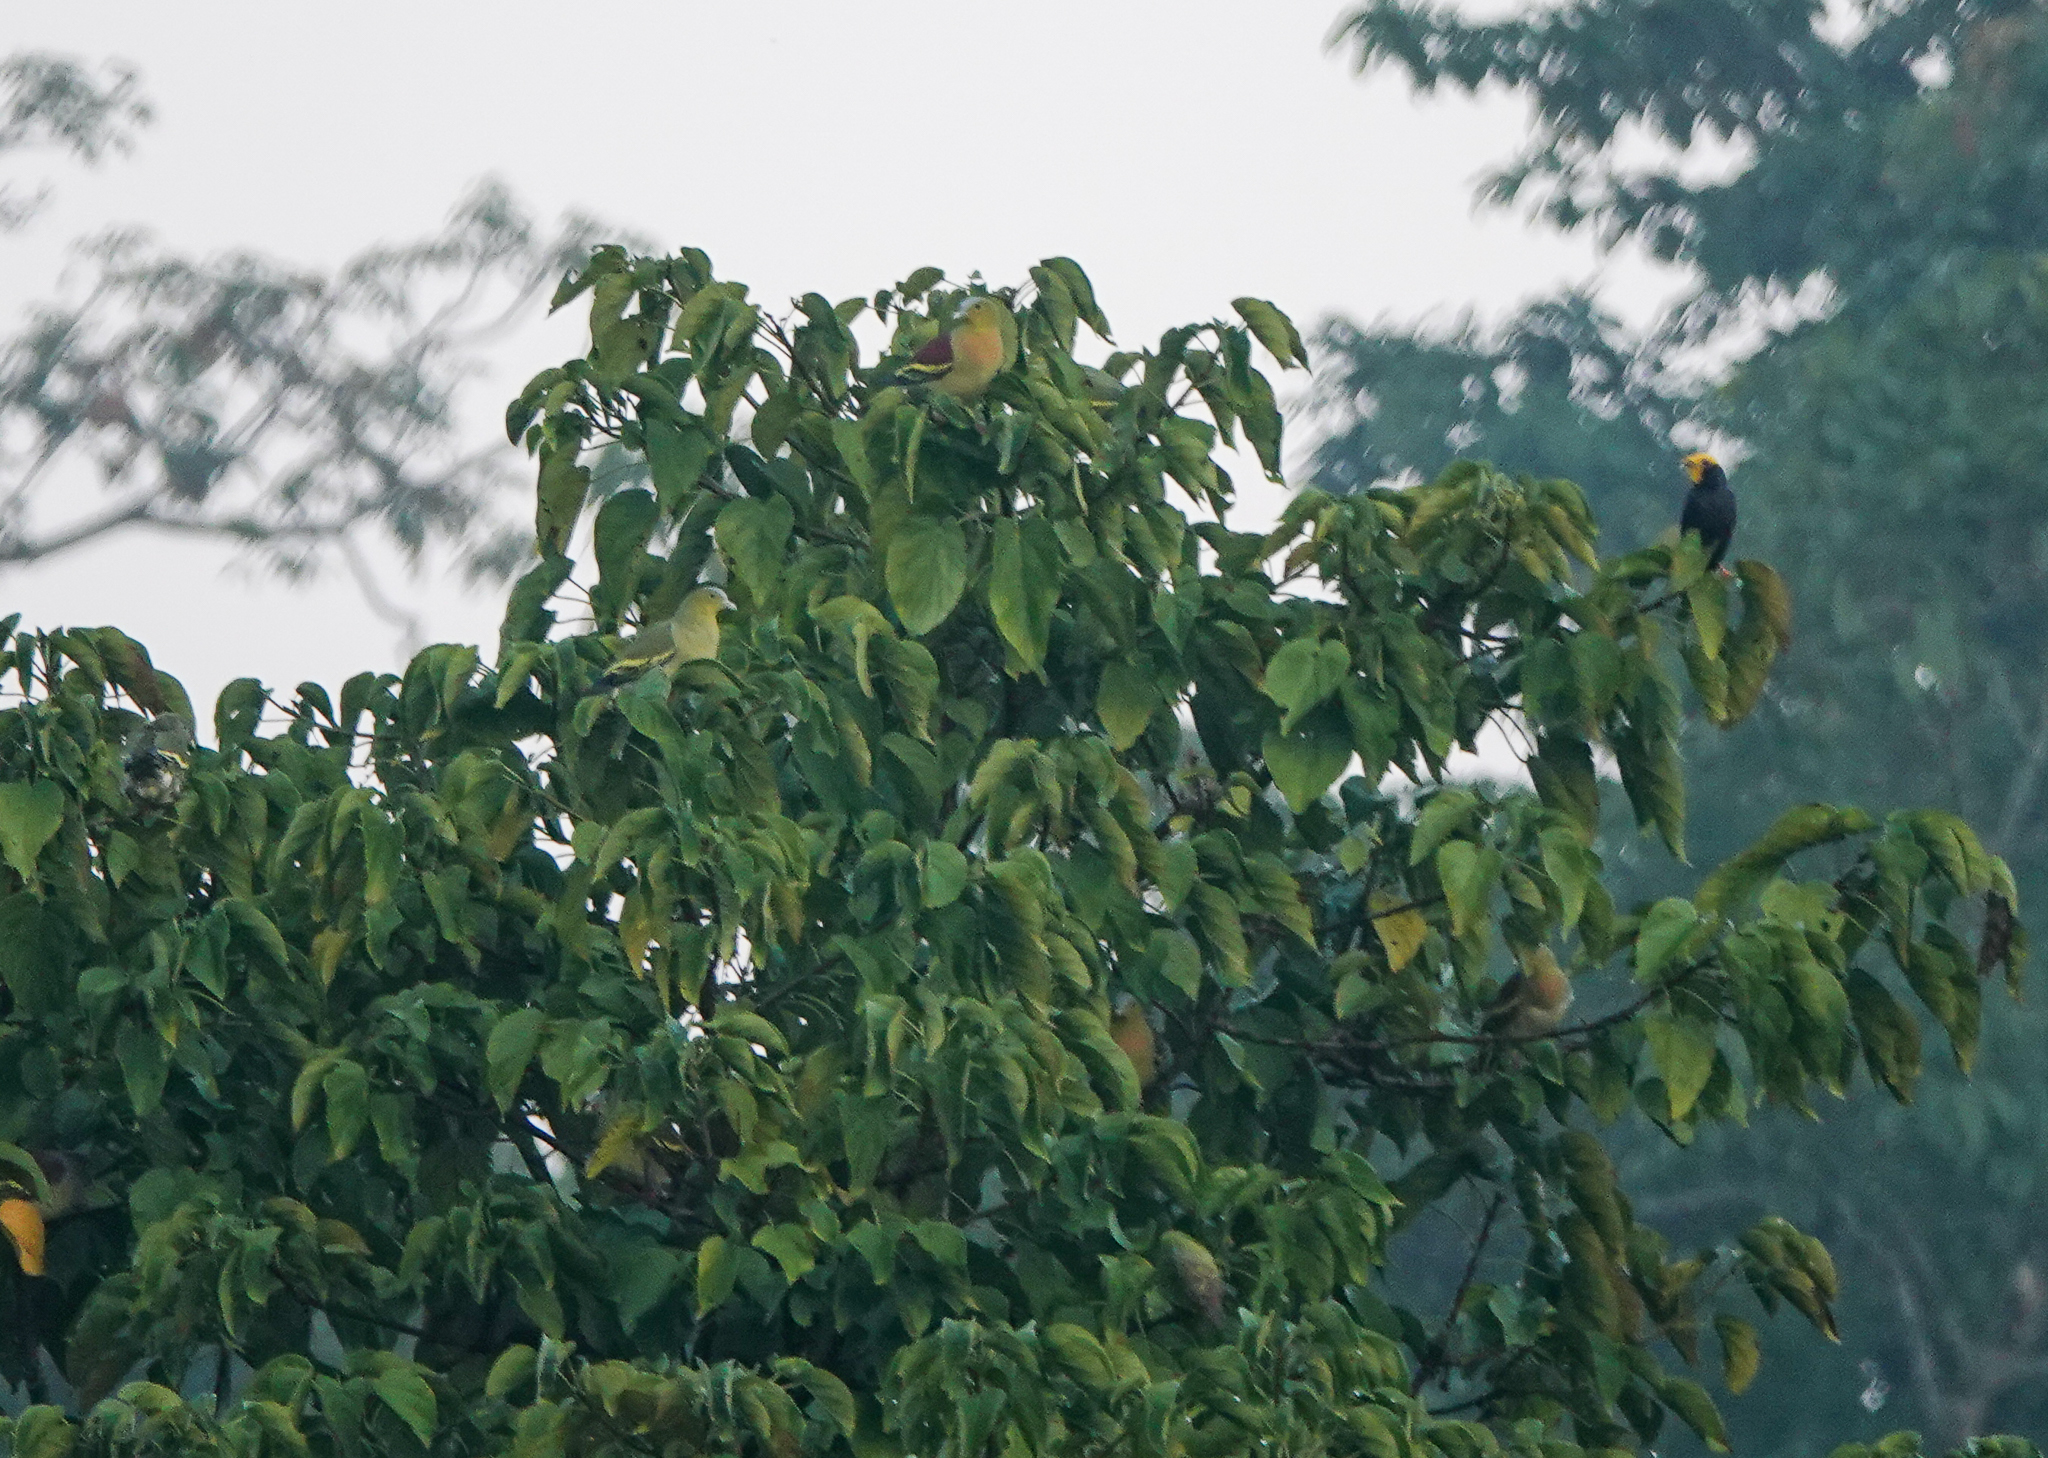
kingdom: Animalia
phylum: Chordata
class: Aves
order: Columbiformes
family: Columbidae
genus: Treron
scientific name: Treron phayrei
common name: Ashy-headed green pigeon
